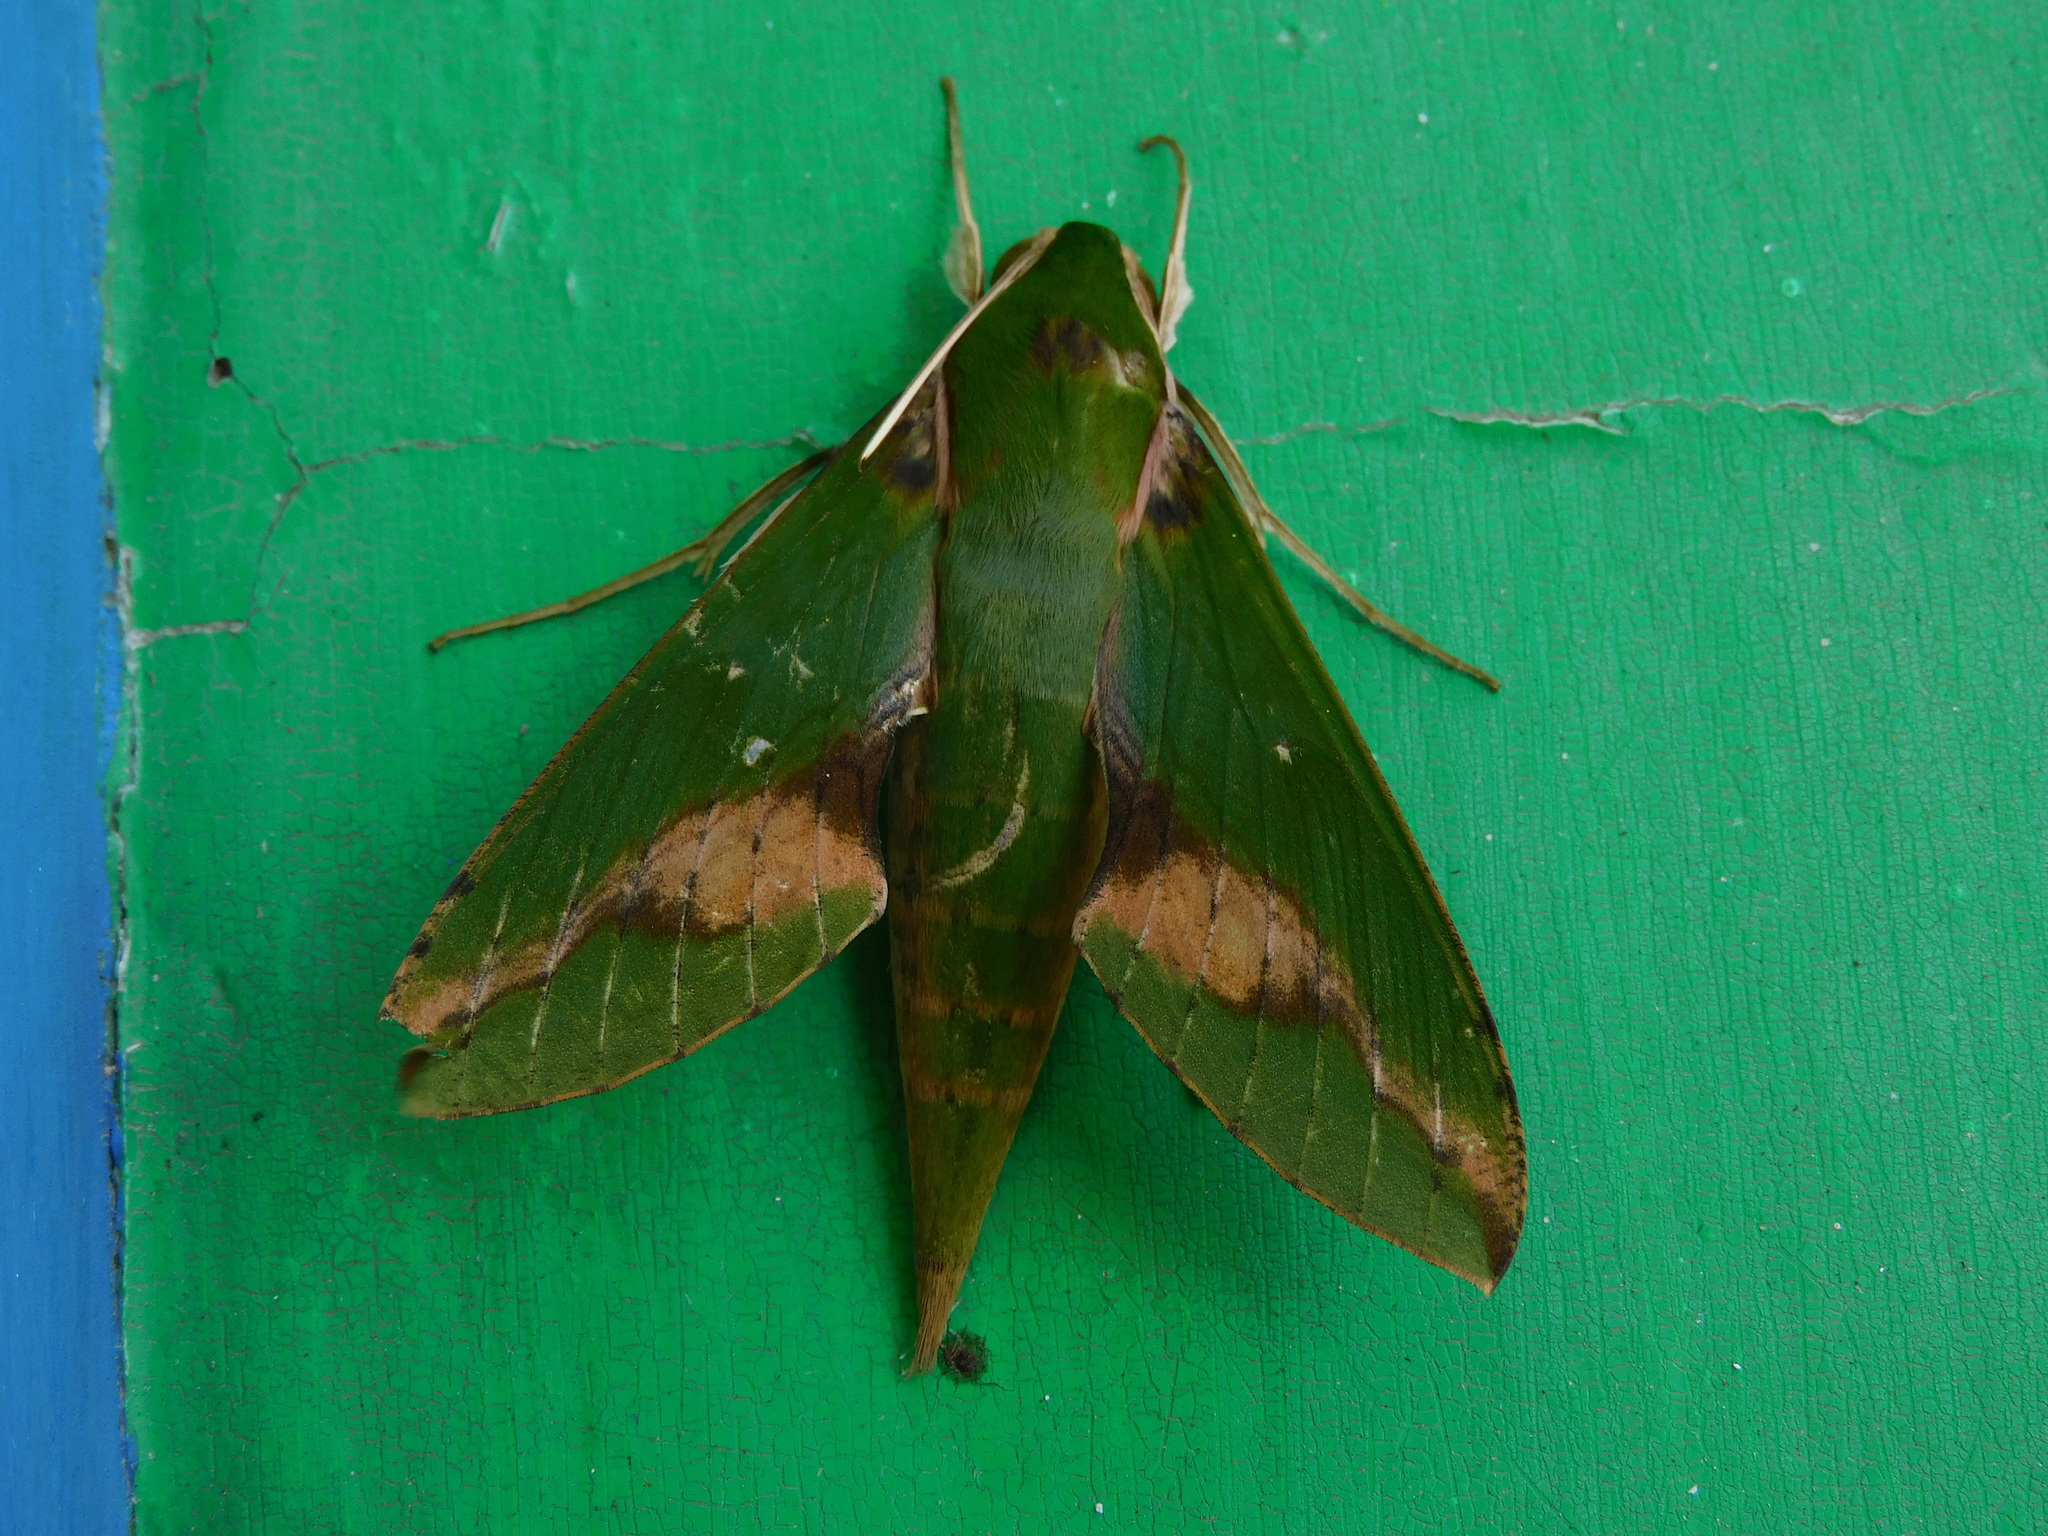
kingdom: Animalia
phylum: Arthropoda
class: Insecta
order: Lepidoptera
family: Sphingidae
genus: Xylophanes
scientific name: Xylophanes chiron
